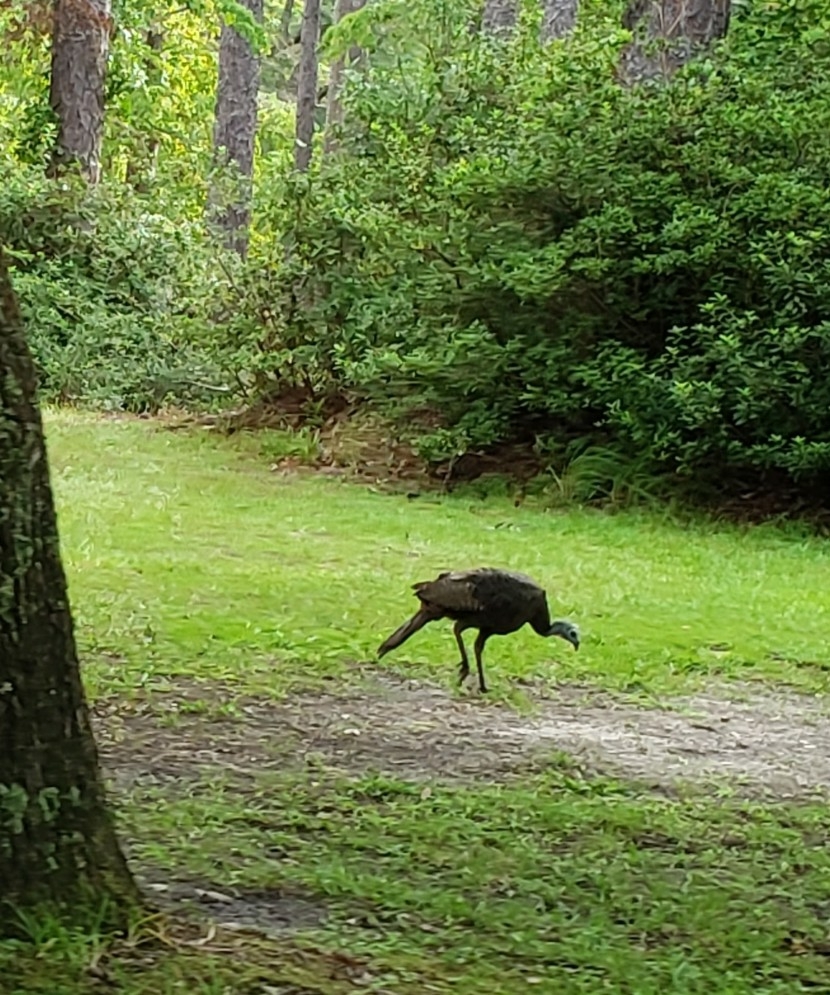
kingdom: Animalia
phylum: Chordata
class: Aves
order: Galliformes
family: Phasianidae
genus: Meleagris
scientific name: Meleagris gallopavo
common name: Wild turkey
